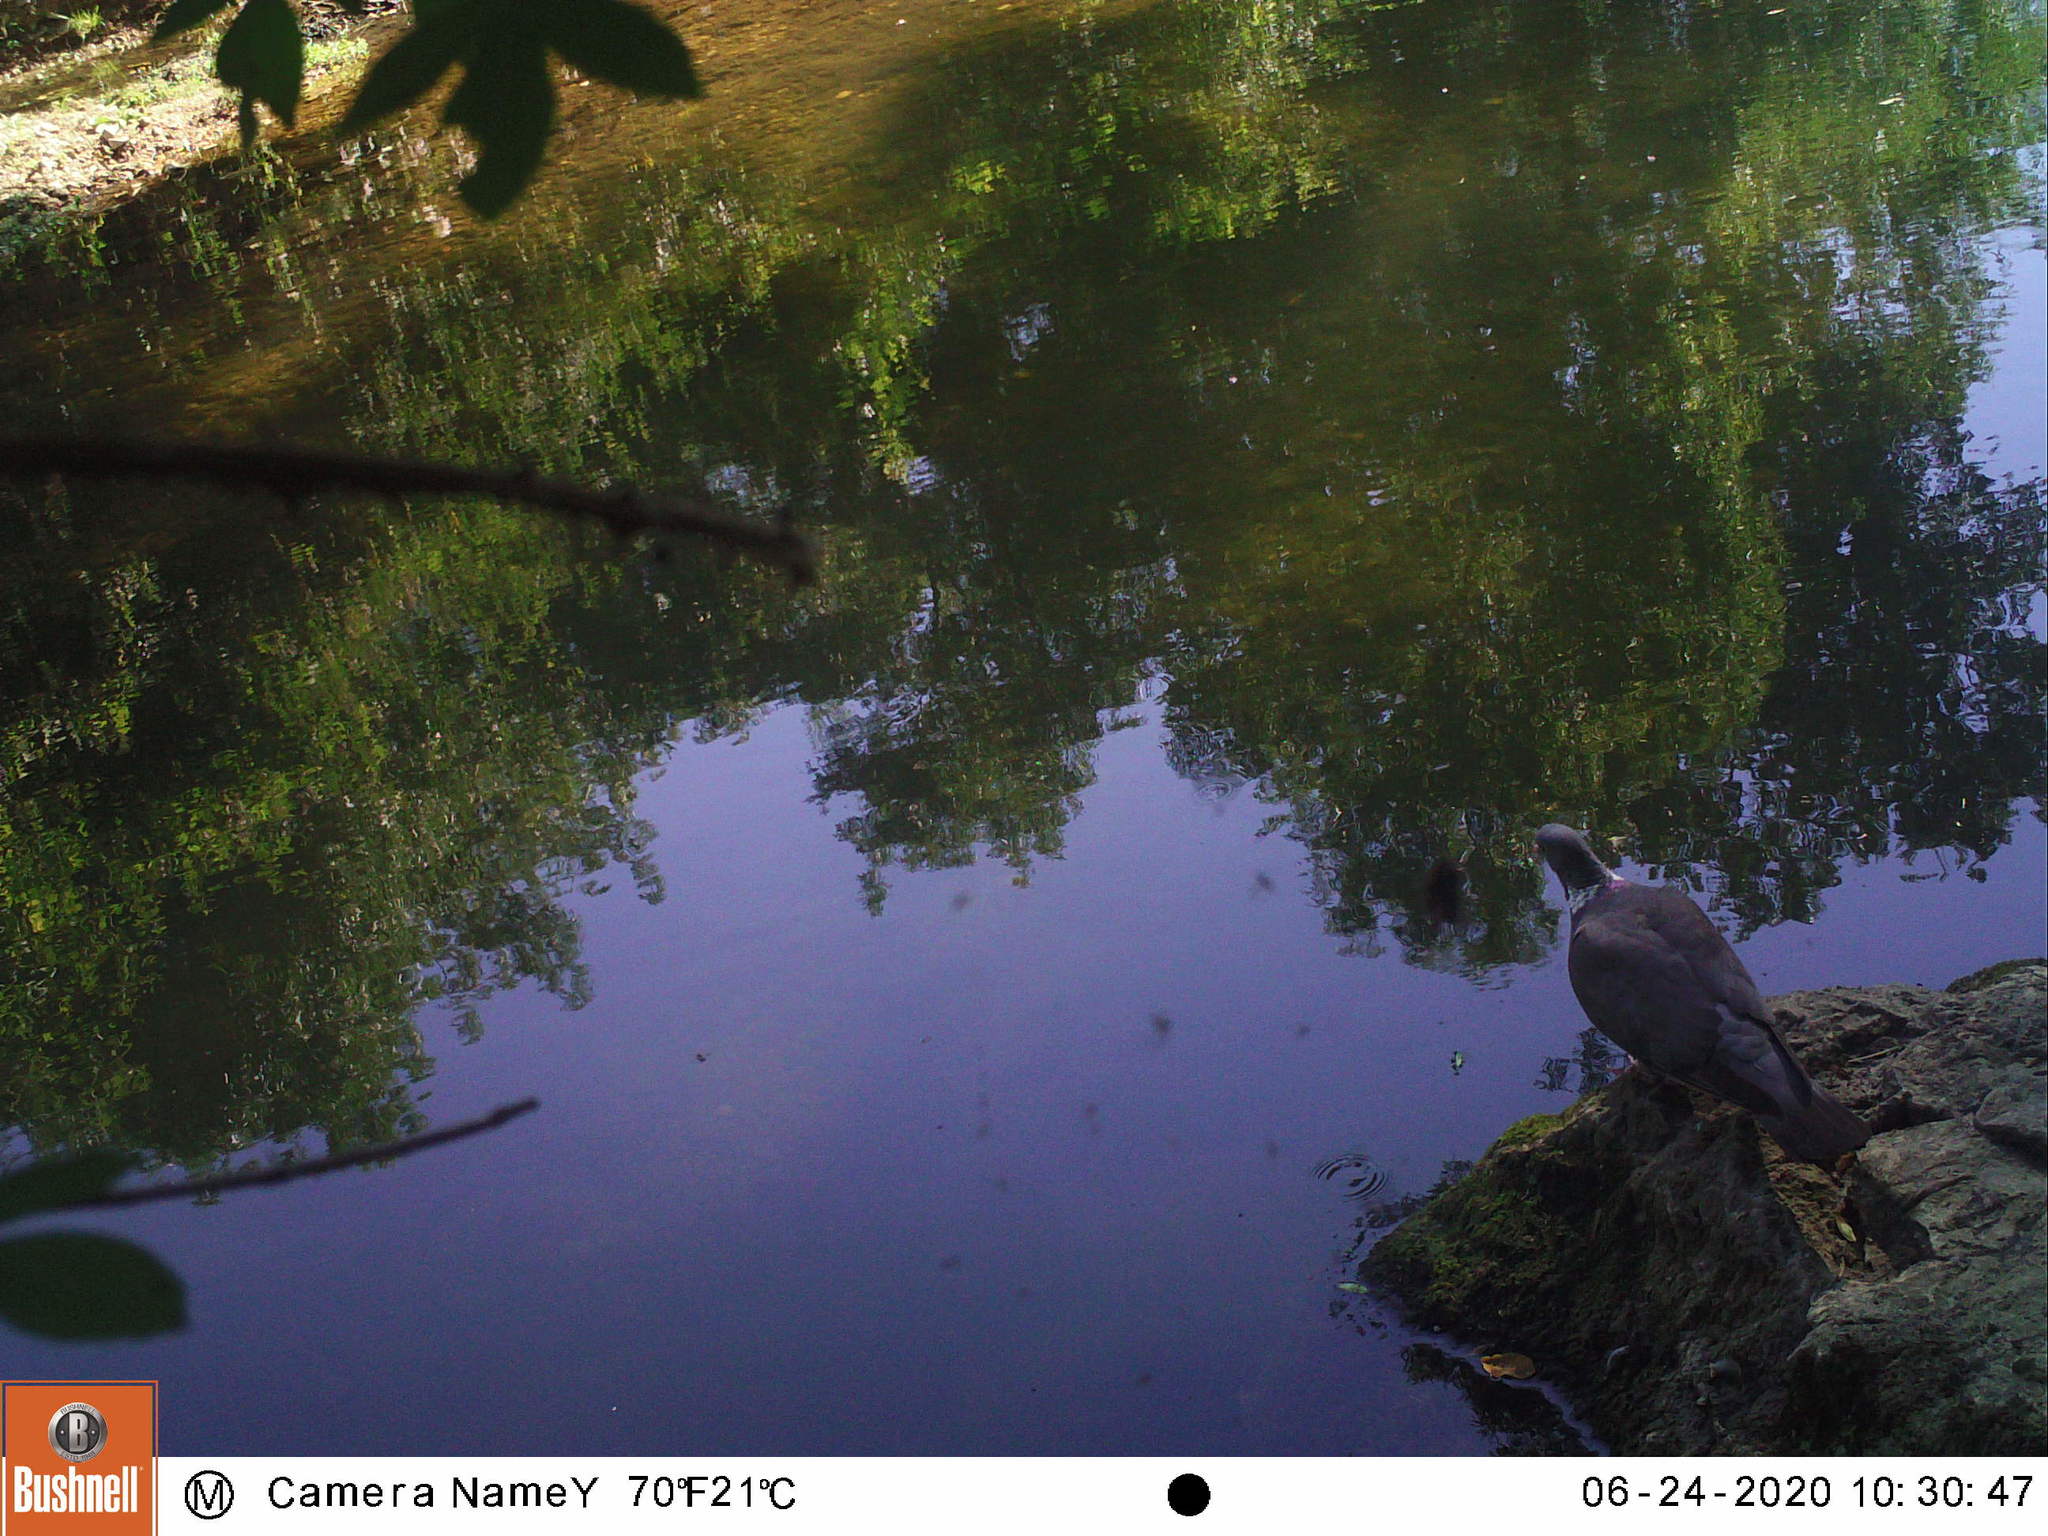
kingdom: Animalia
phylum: Chordata
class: Aves
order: Columbiformes
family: Columbidae
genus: Columba
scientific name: Columba palumbus
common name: Common wood pigeon
